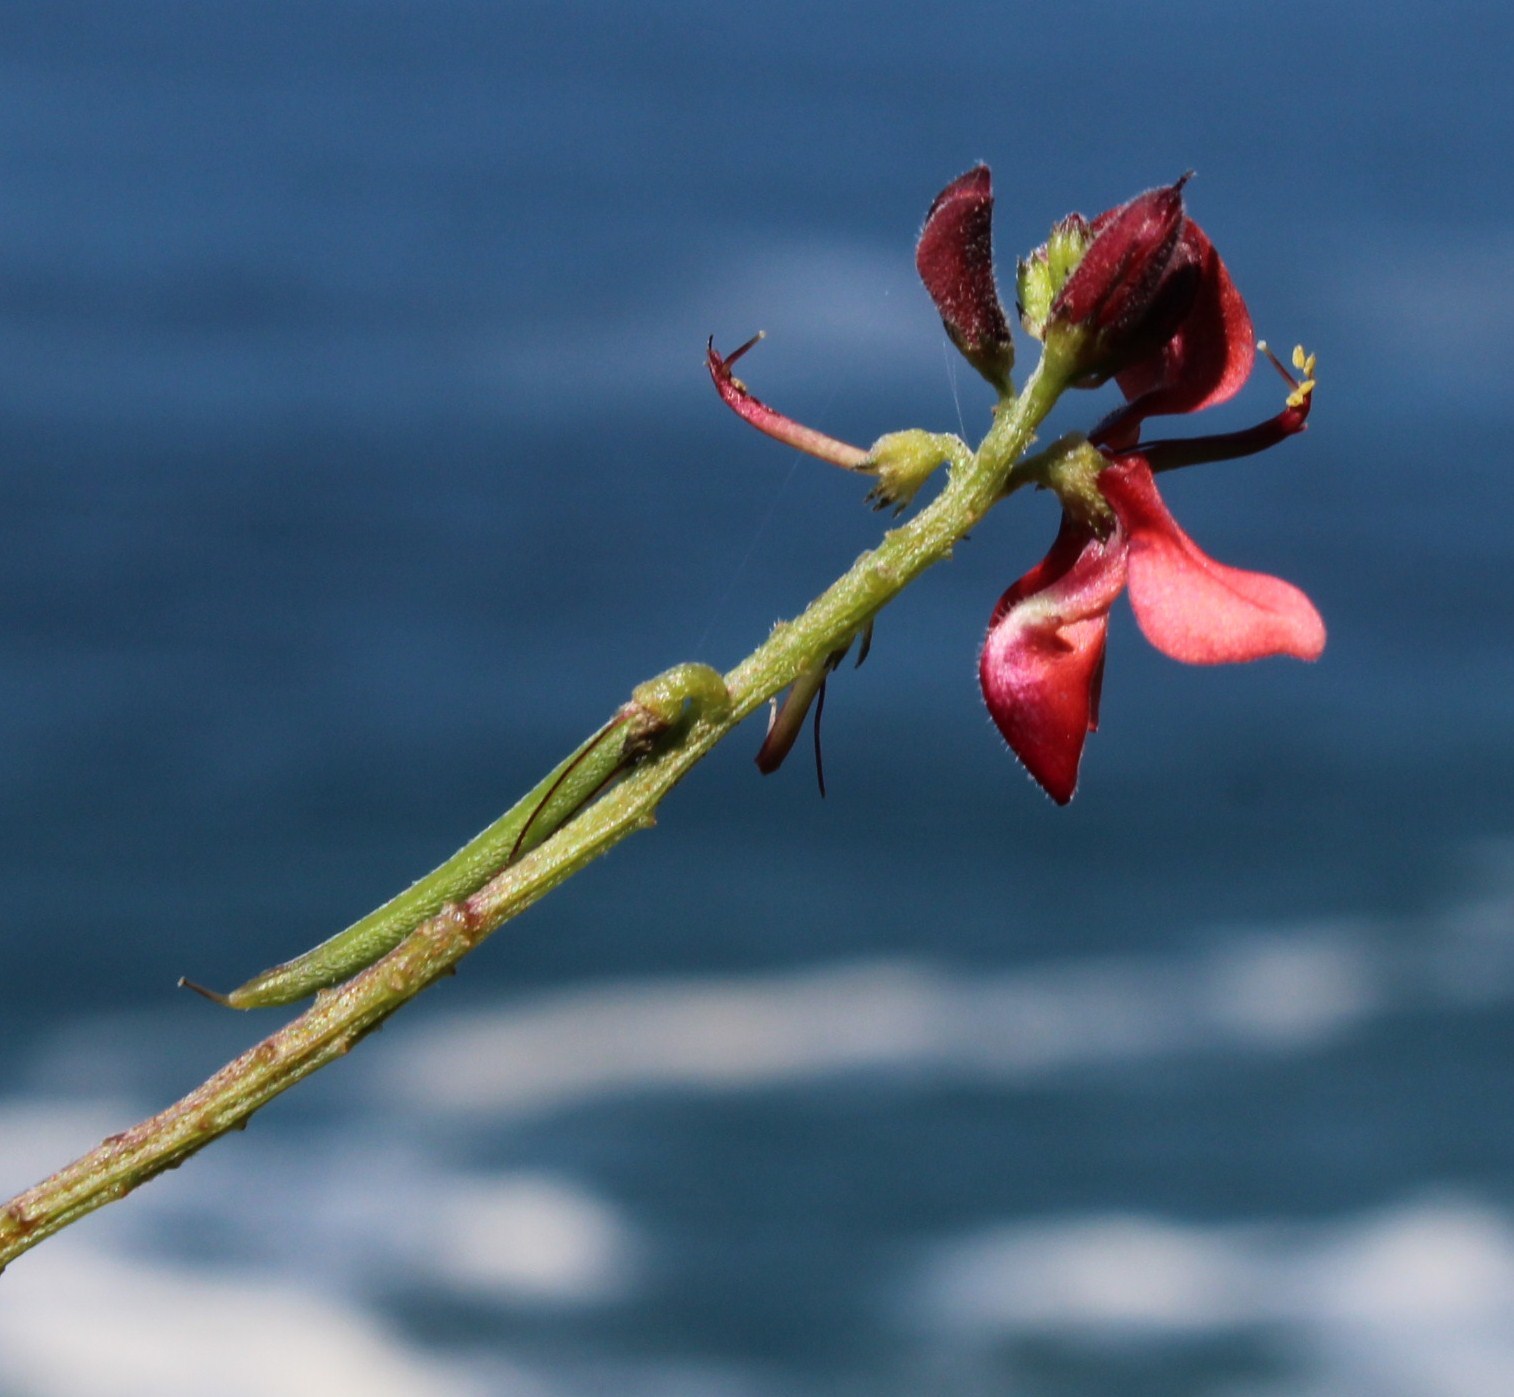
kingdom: Plantae
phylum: Tracheophyta
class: Magnoliopsida
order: Fabales
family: Fabaceae
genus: Indigofera
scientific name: Indigofera porrecta
